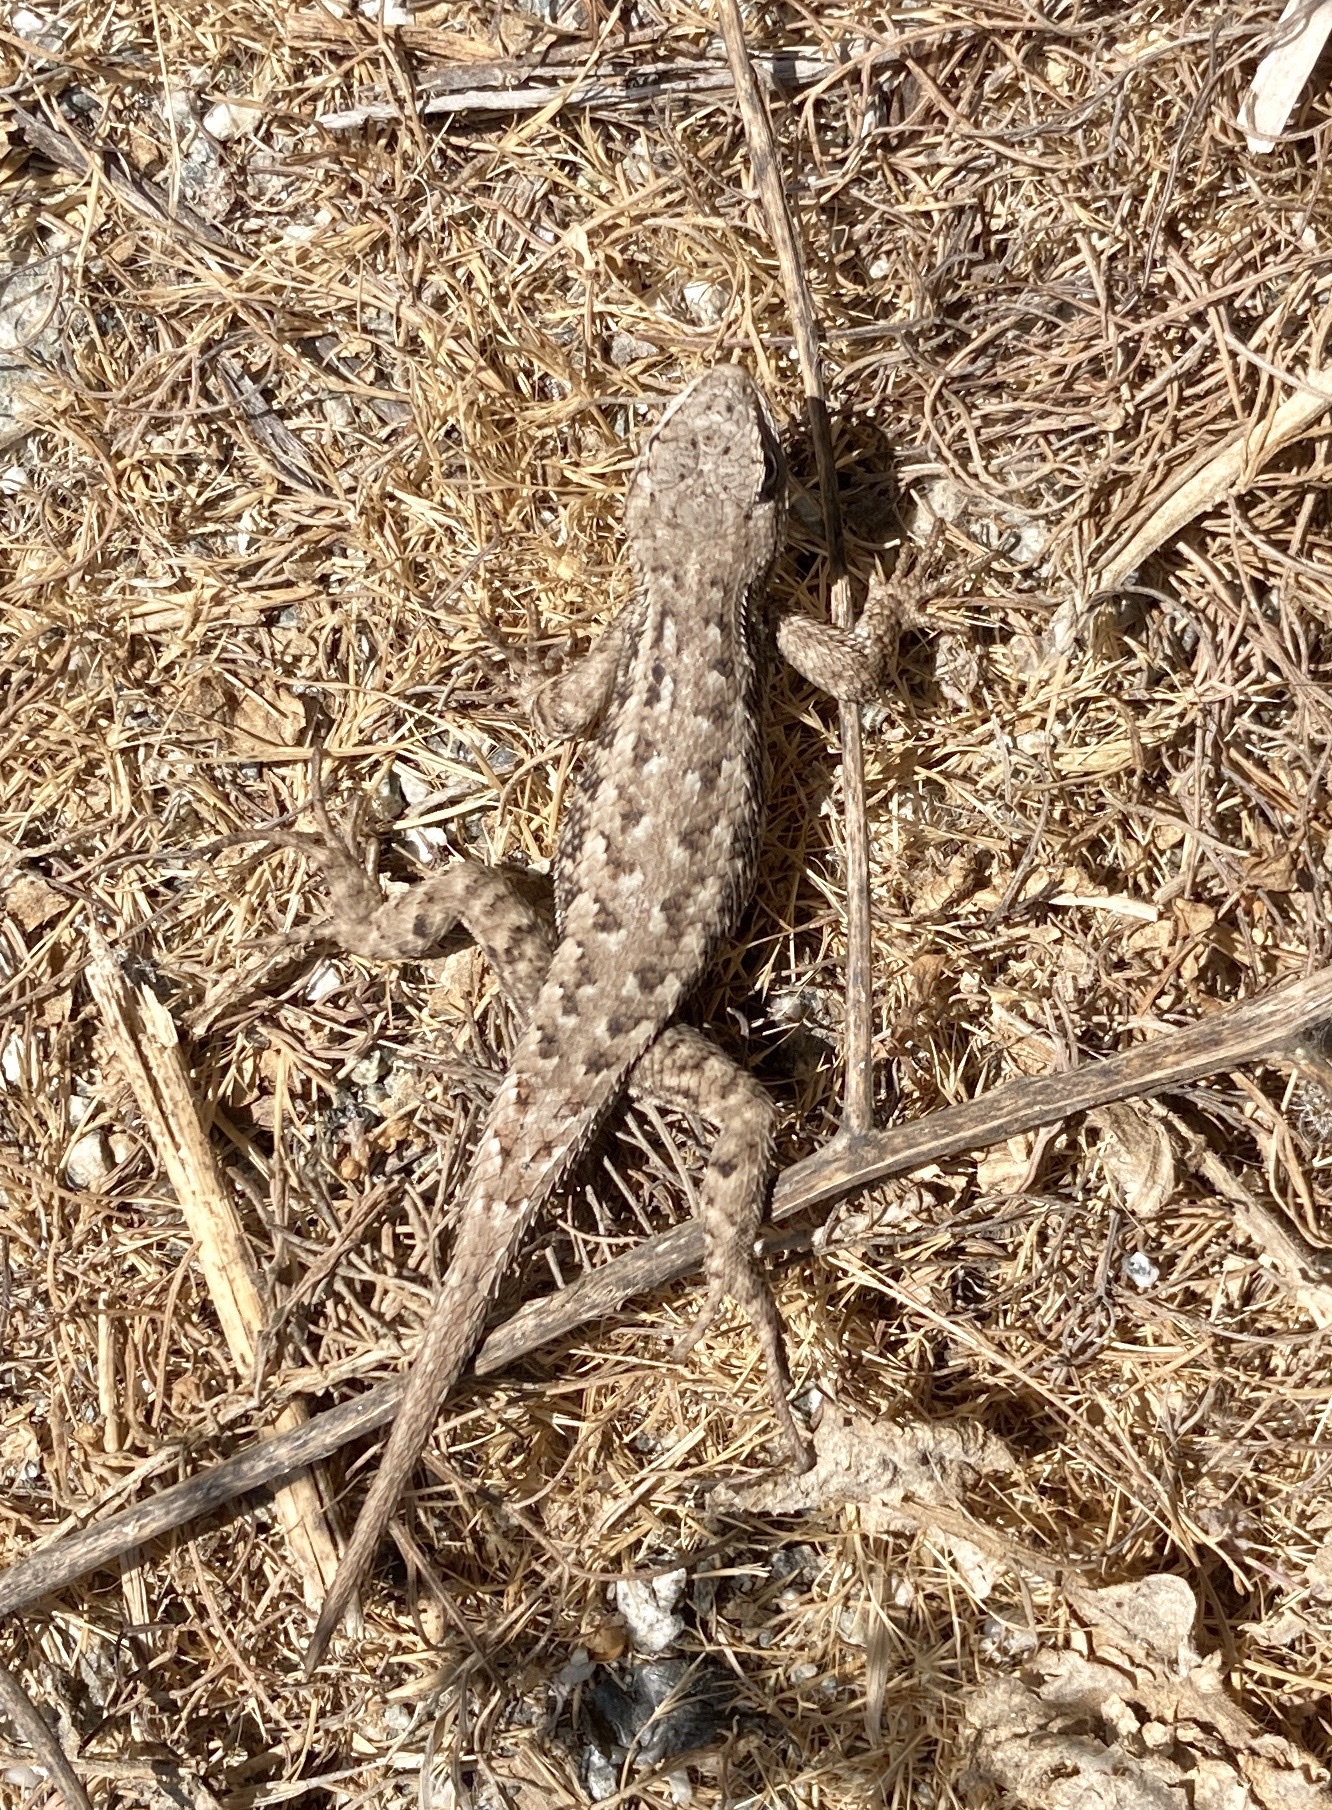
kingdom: Animalia
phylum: Chordata
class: Squamata
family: Phrynosomatidae
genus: Sceloporus
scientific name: Sceloporus occidentalis
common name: Western fence lizard
